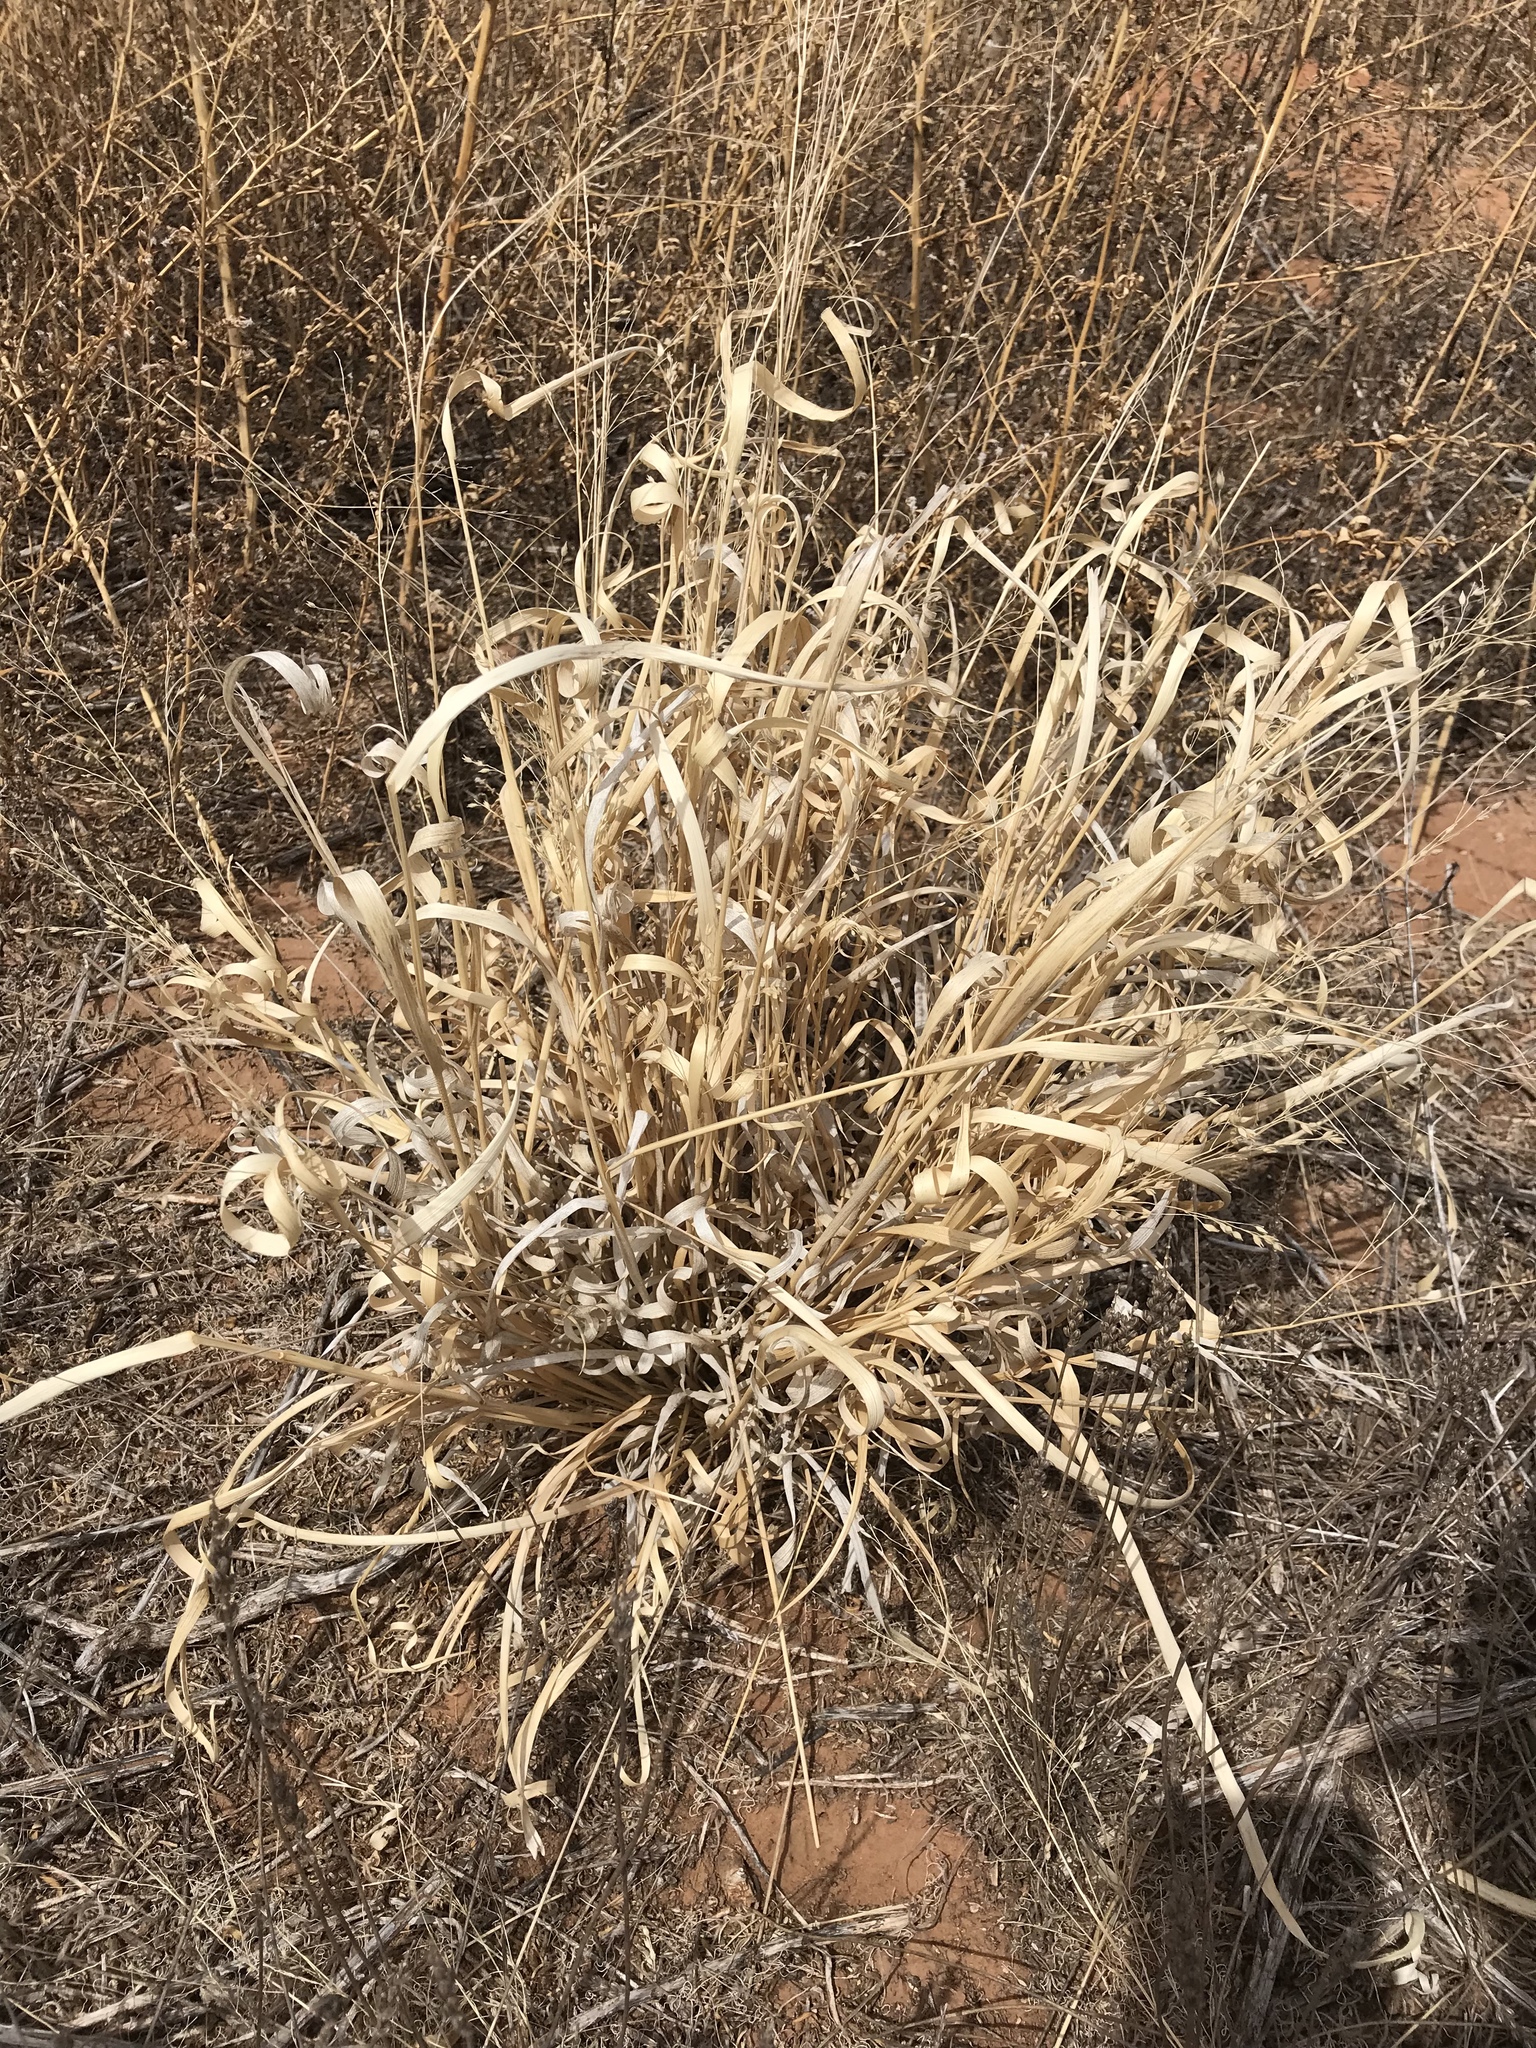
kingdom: Plantae
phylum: Tracheophyta
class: Liliopsida
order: Poales
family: Poaceae
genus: Panicum
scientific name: Panicum hallii
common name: Hall's witchgrass
